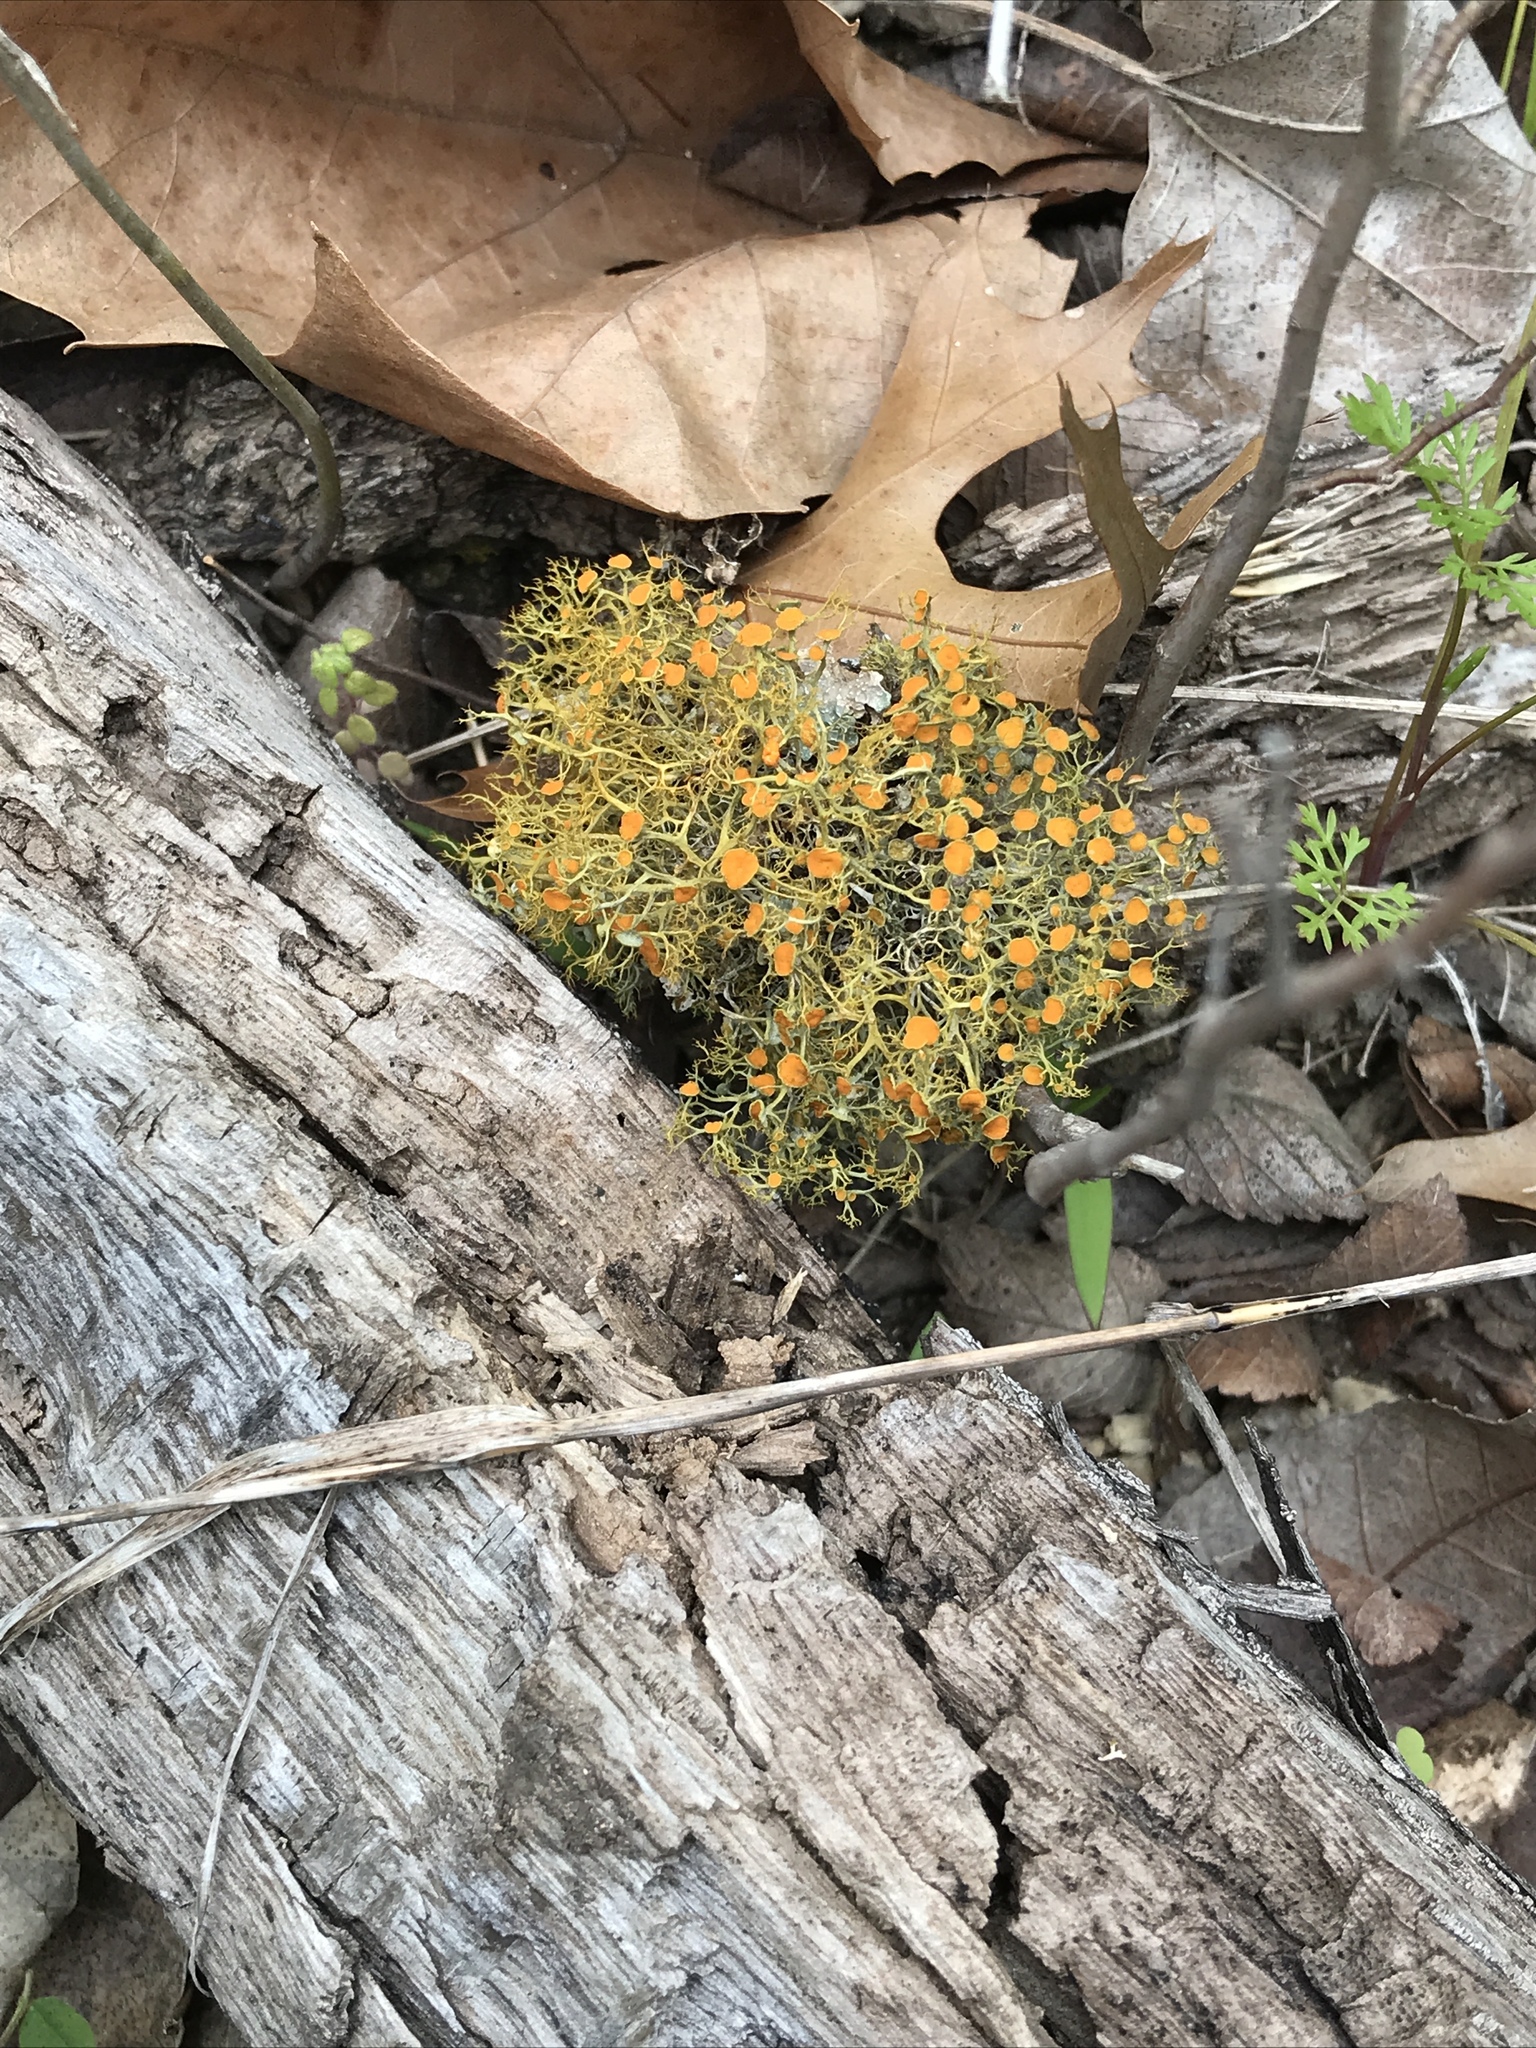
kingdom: Fungi
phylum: Ascomycota
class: Lecanoromycetes
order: Teloschistales
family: Teloschistaceae
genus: Teloschistes
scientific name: Teloschistes exilis
